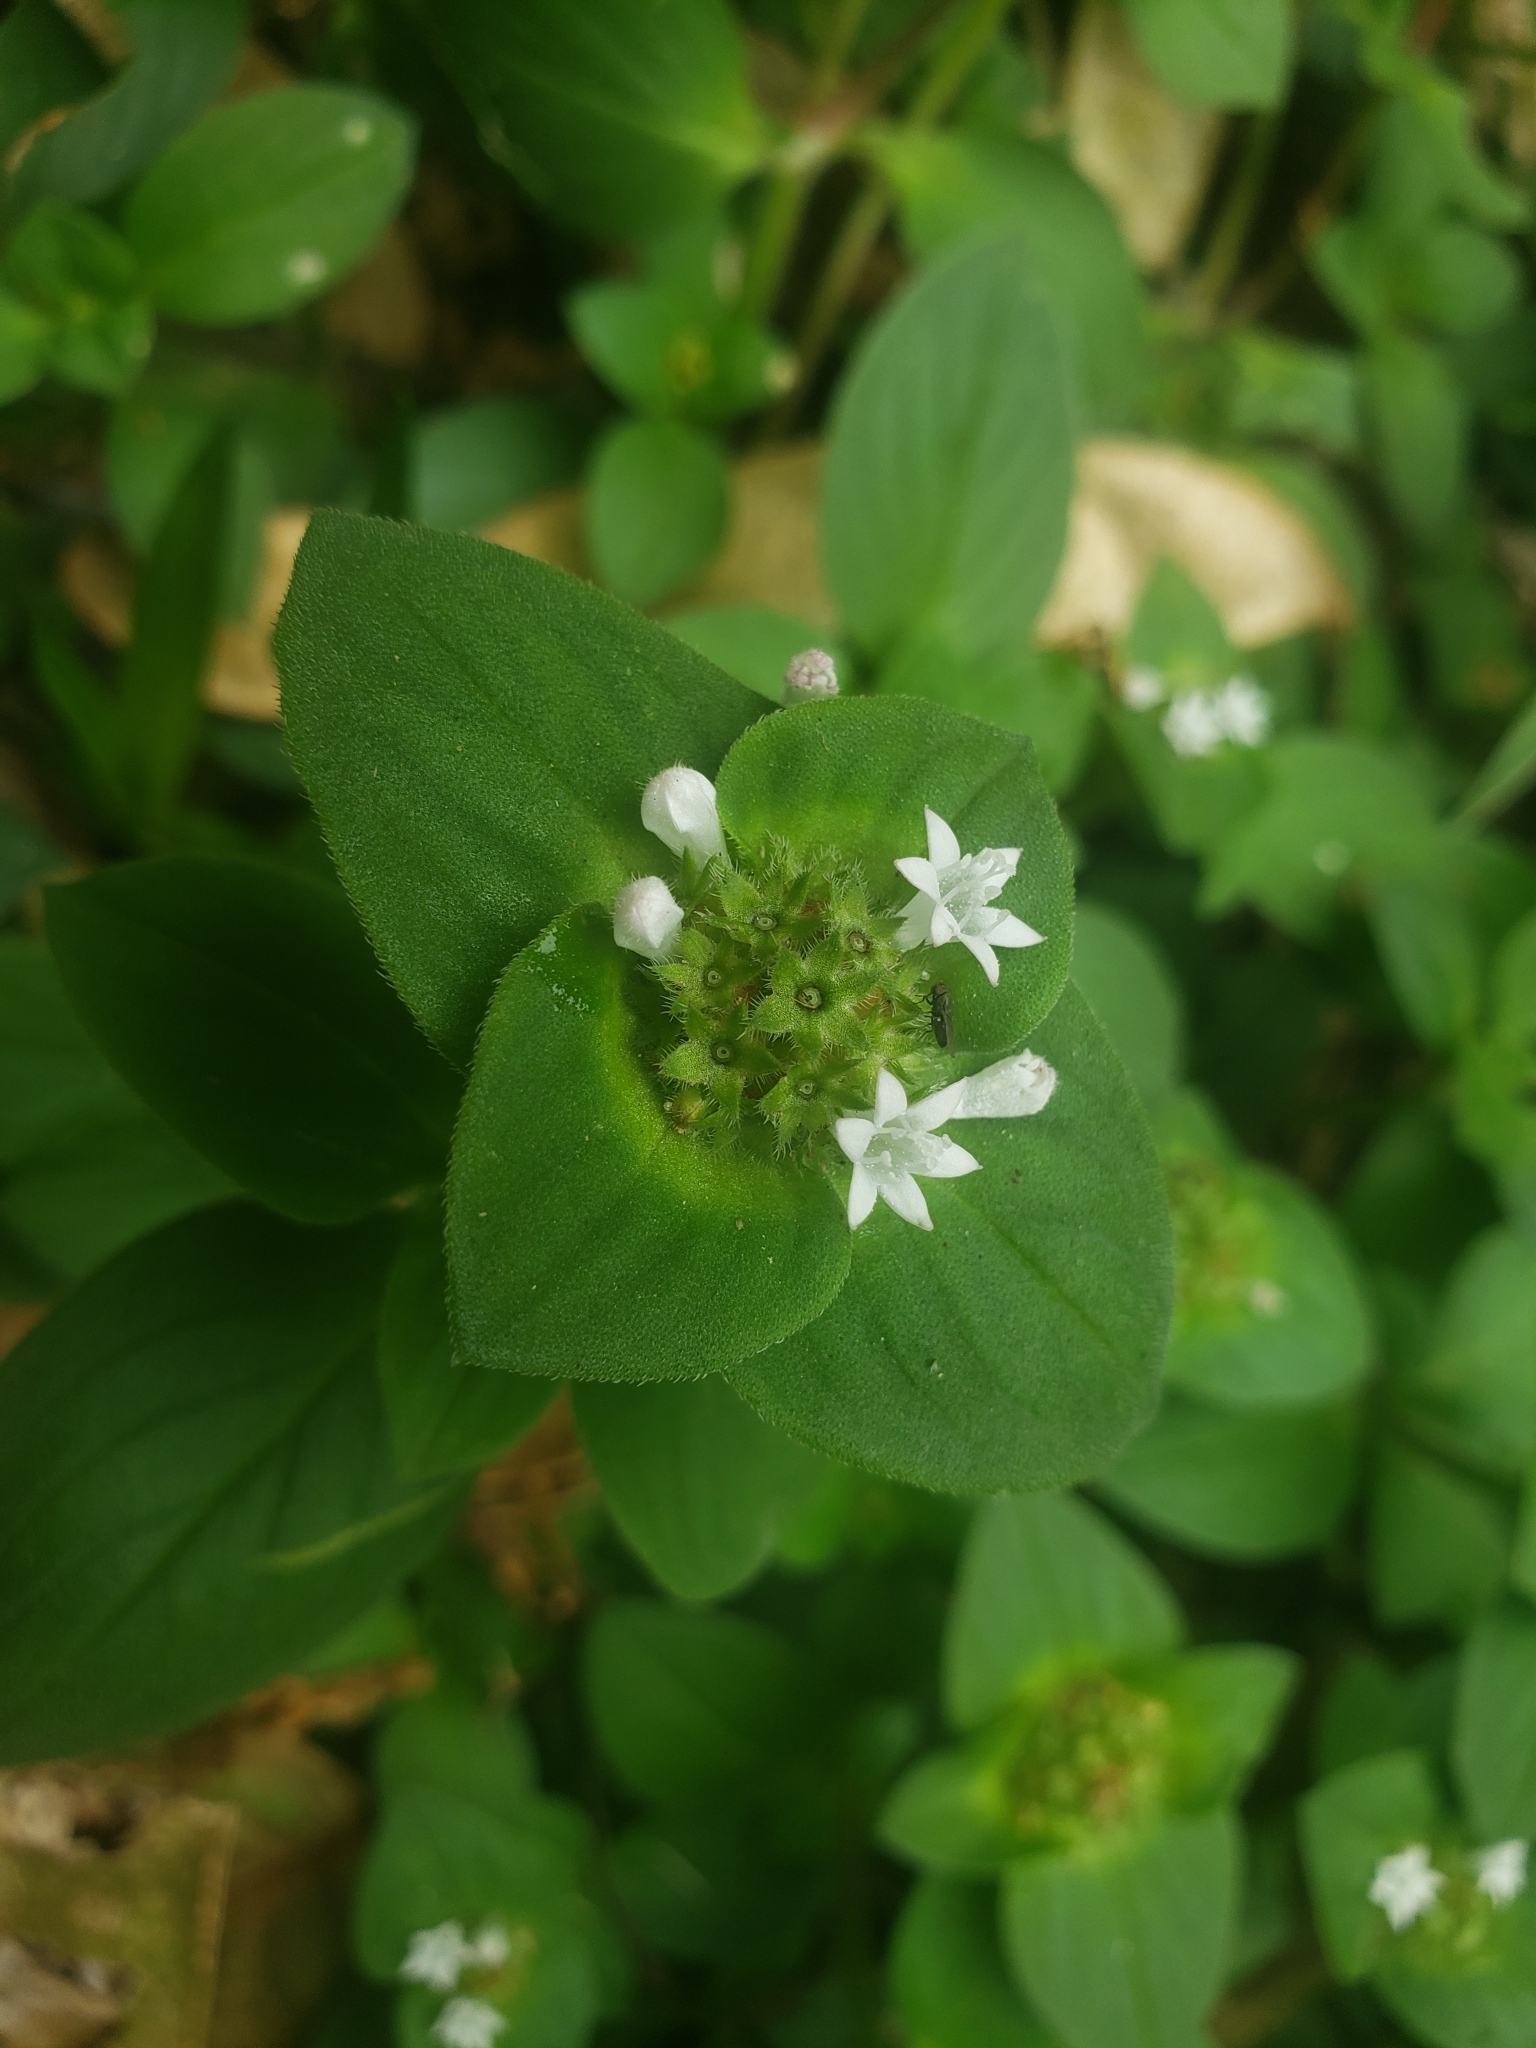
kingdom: Plantae
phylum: Tracheophyta
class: Magnoliopsida
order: Gentianales
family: Rubiaceae
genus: Richardia
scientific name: Richardia brasiliensis
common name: Tropical mexican clover
